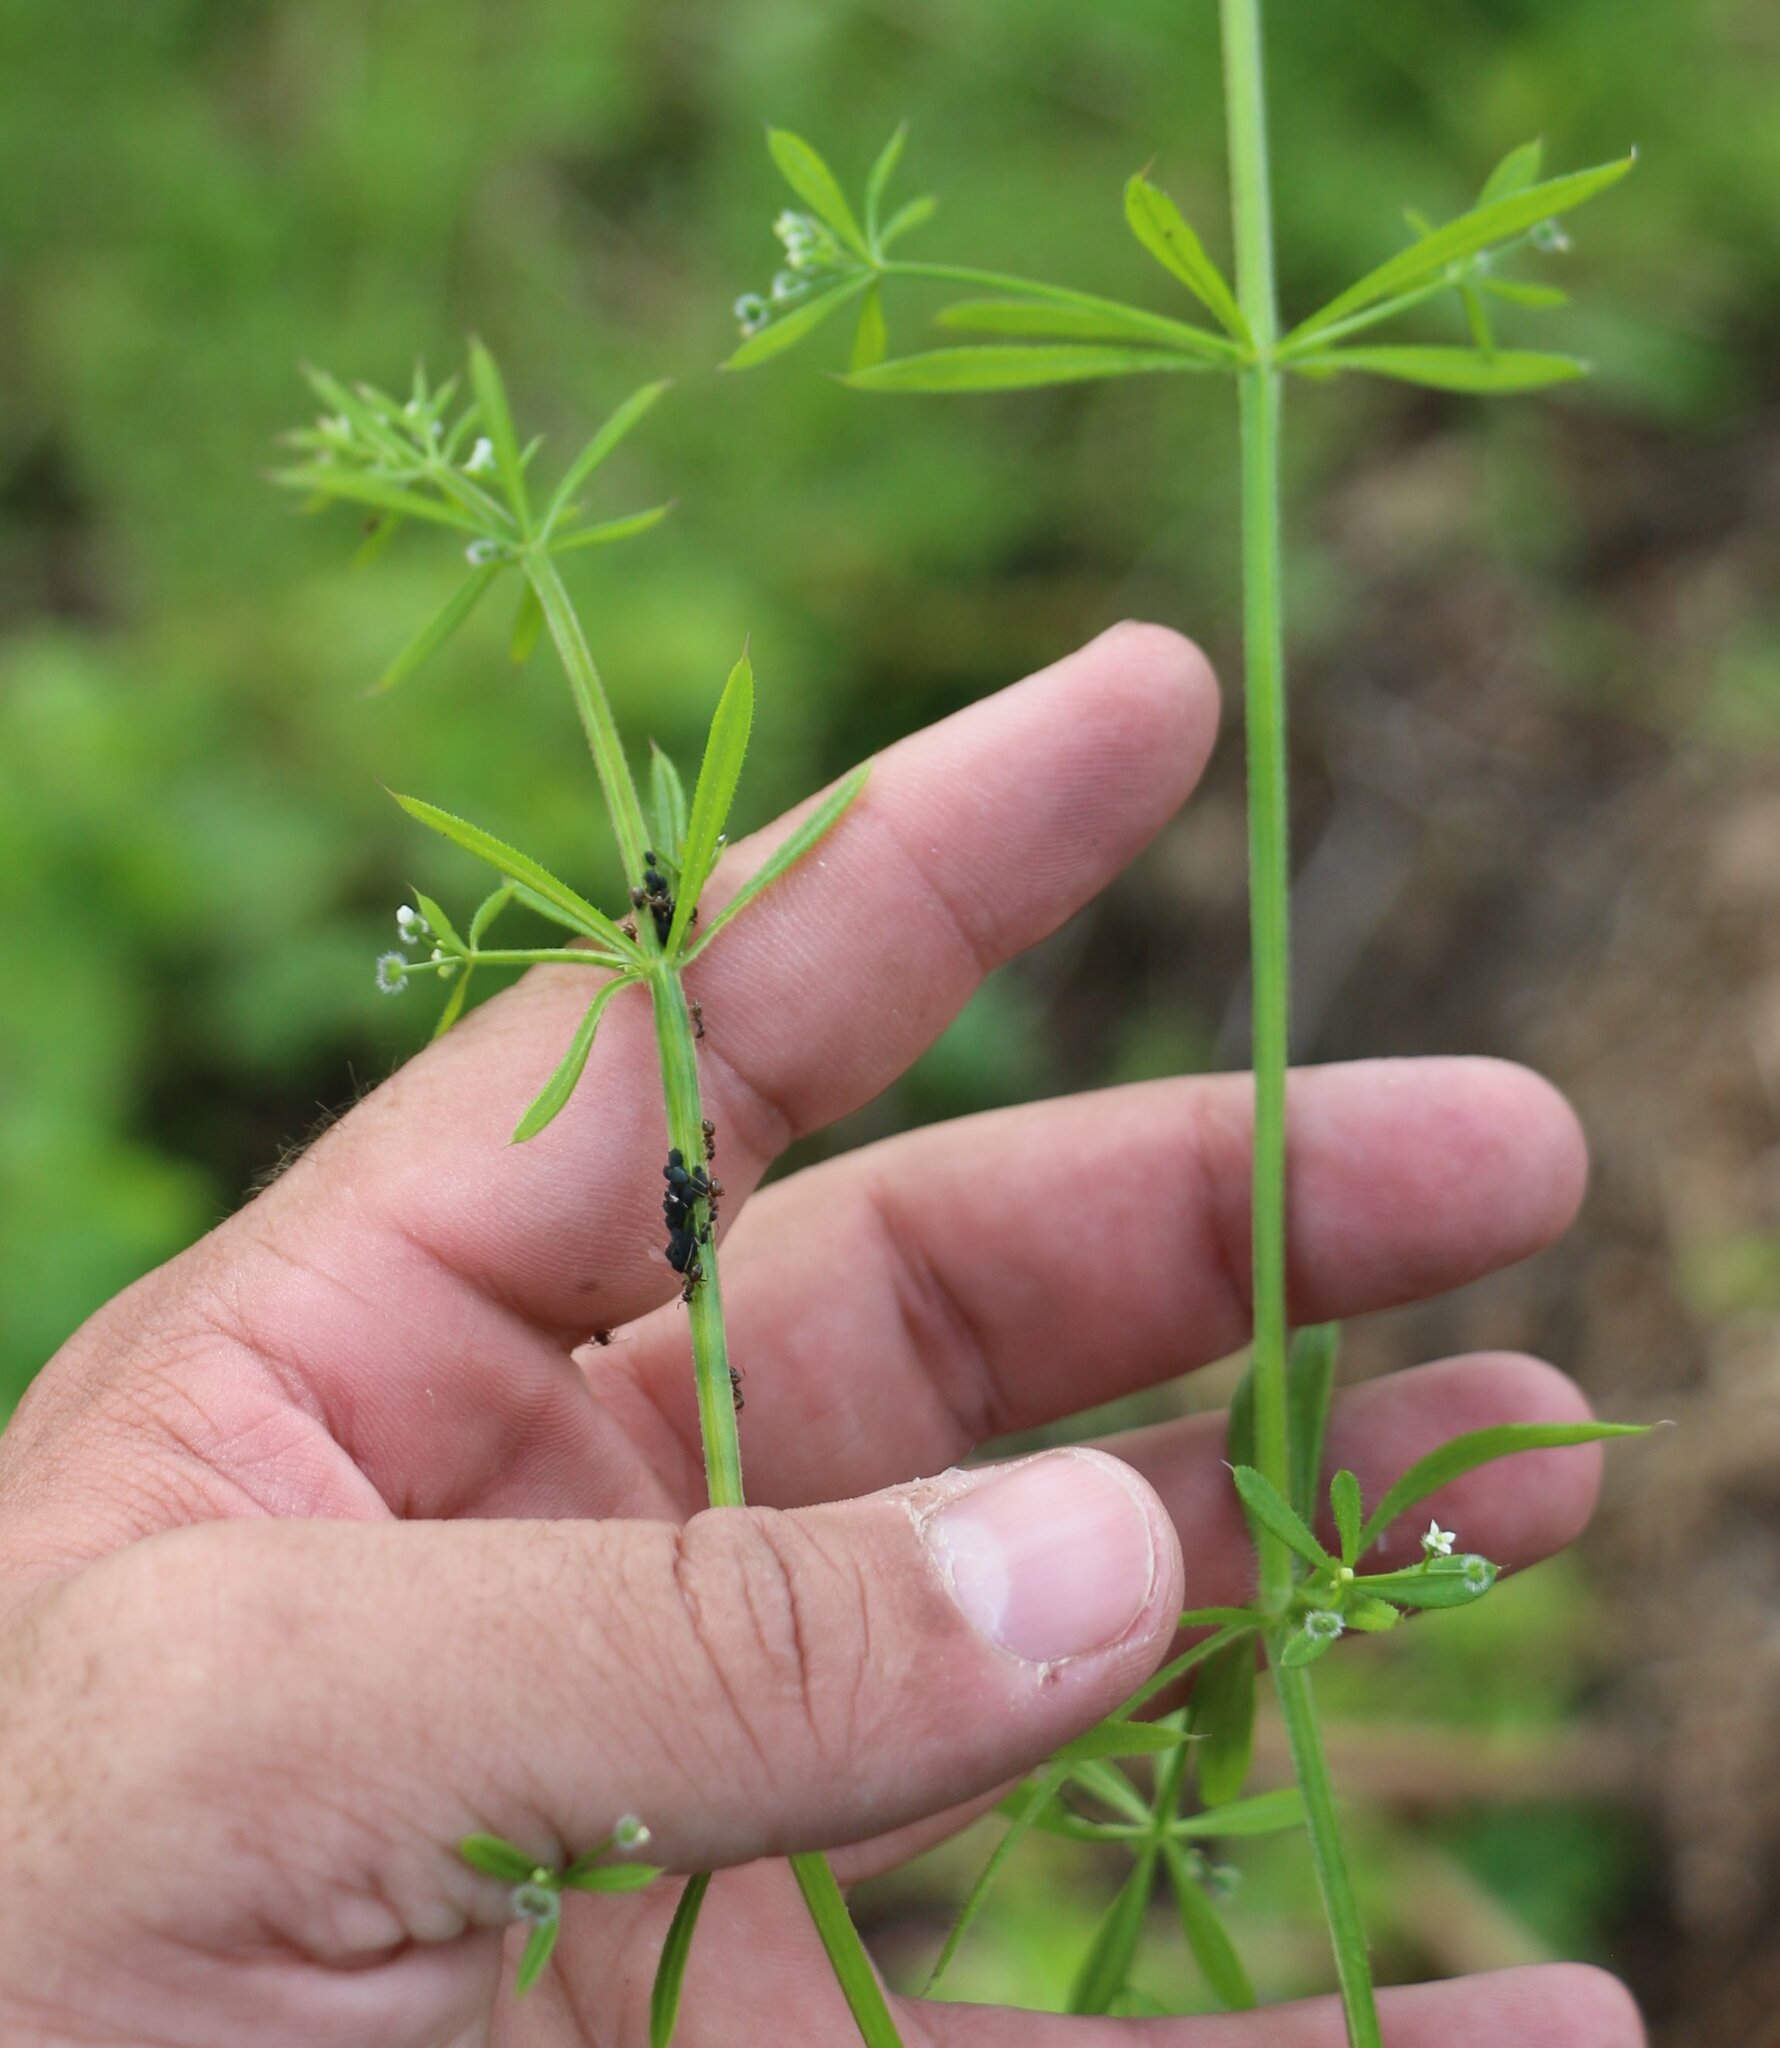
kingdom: Plantae
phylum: Tracheophyta
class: Magnoliopsida
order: Gentianales
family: Rubiaceae
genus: Galium
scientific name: Galium aparine
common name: Cleavers
